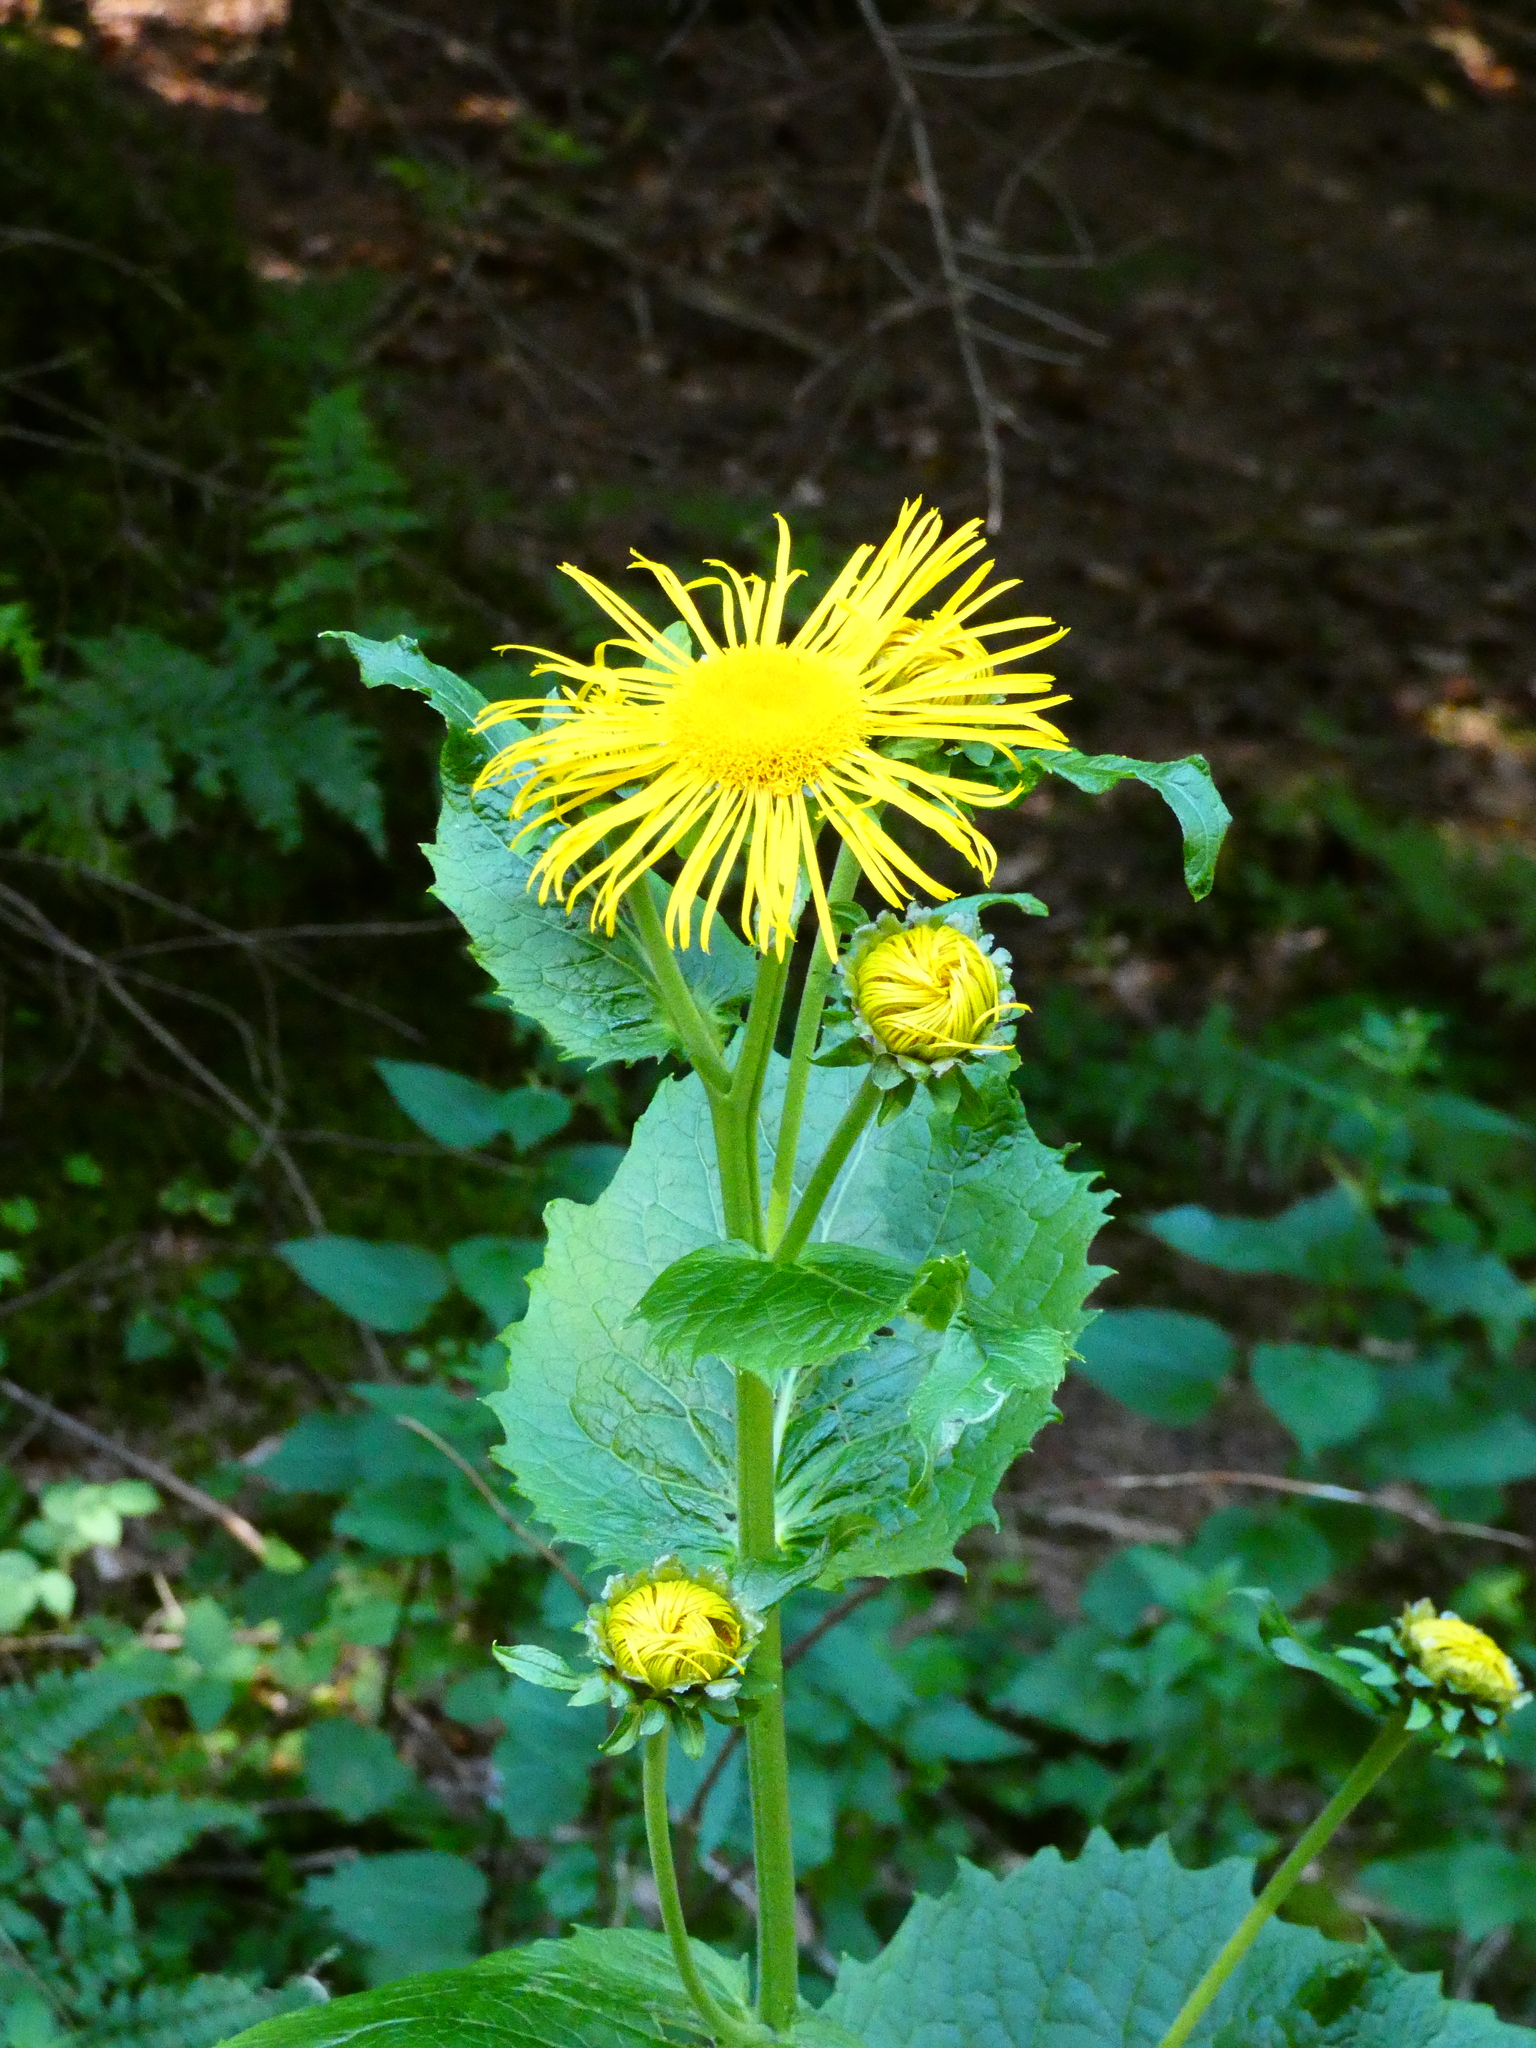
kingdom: Plantae
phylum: Tracheophyta
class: Magnoliopsida
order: Asterales
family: Asteraceae
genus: Telekia
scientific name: Telekia speciosa
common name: Yellow oxeye
